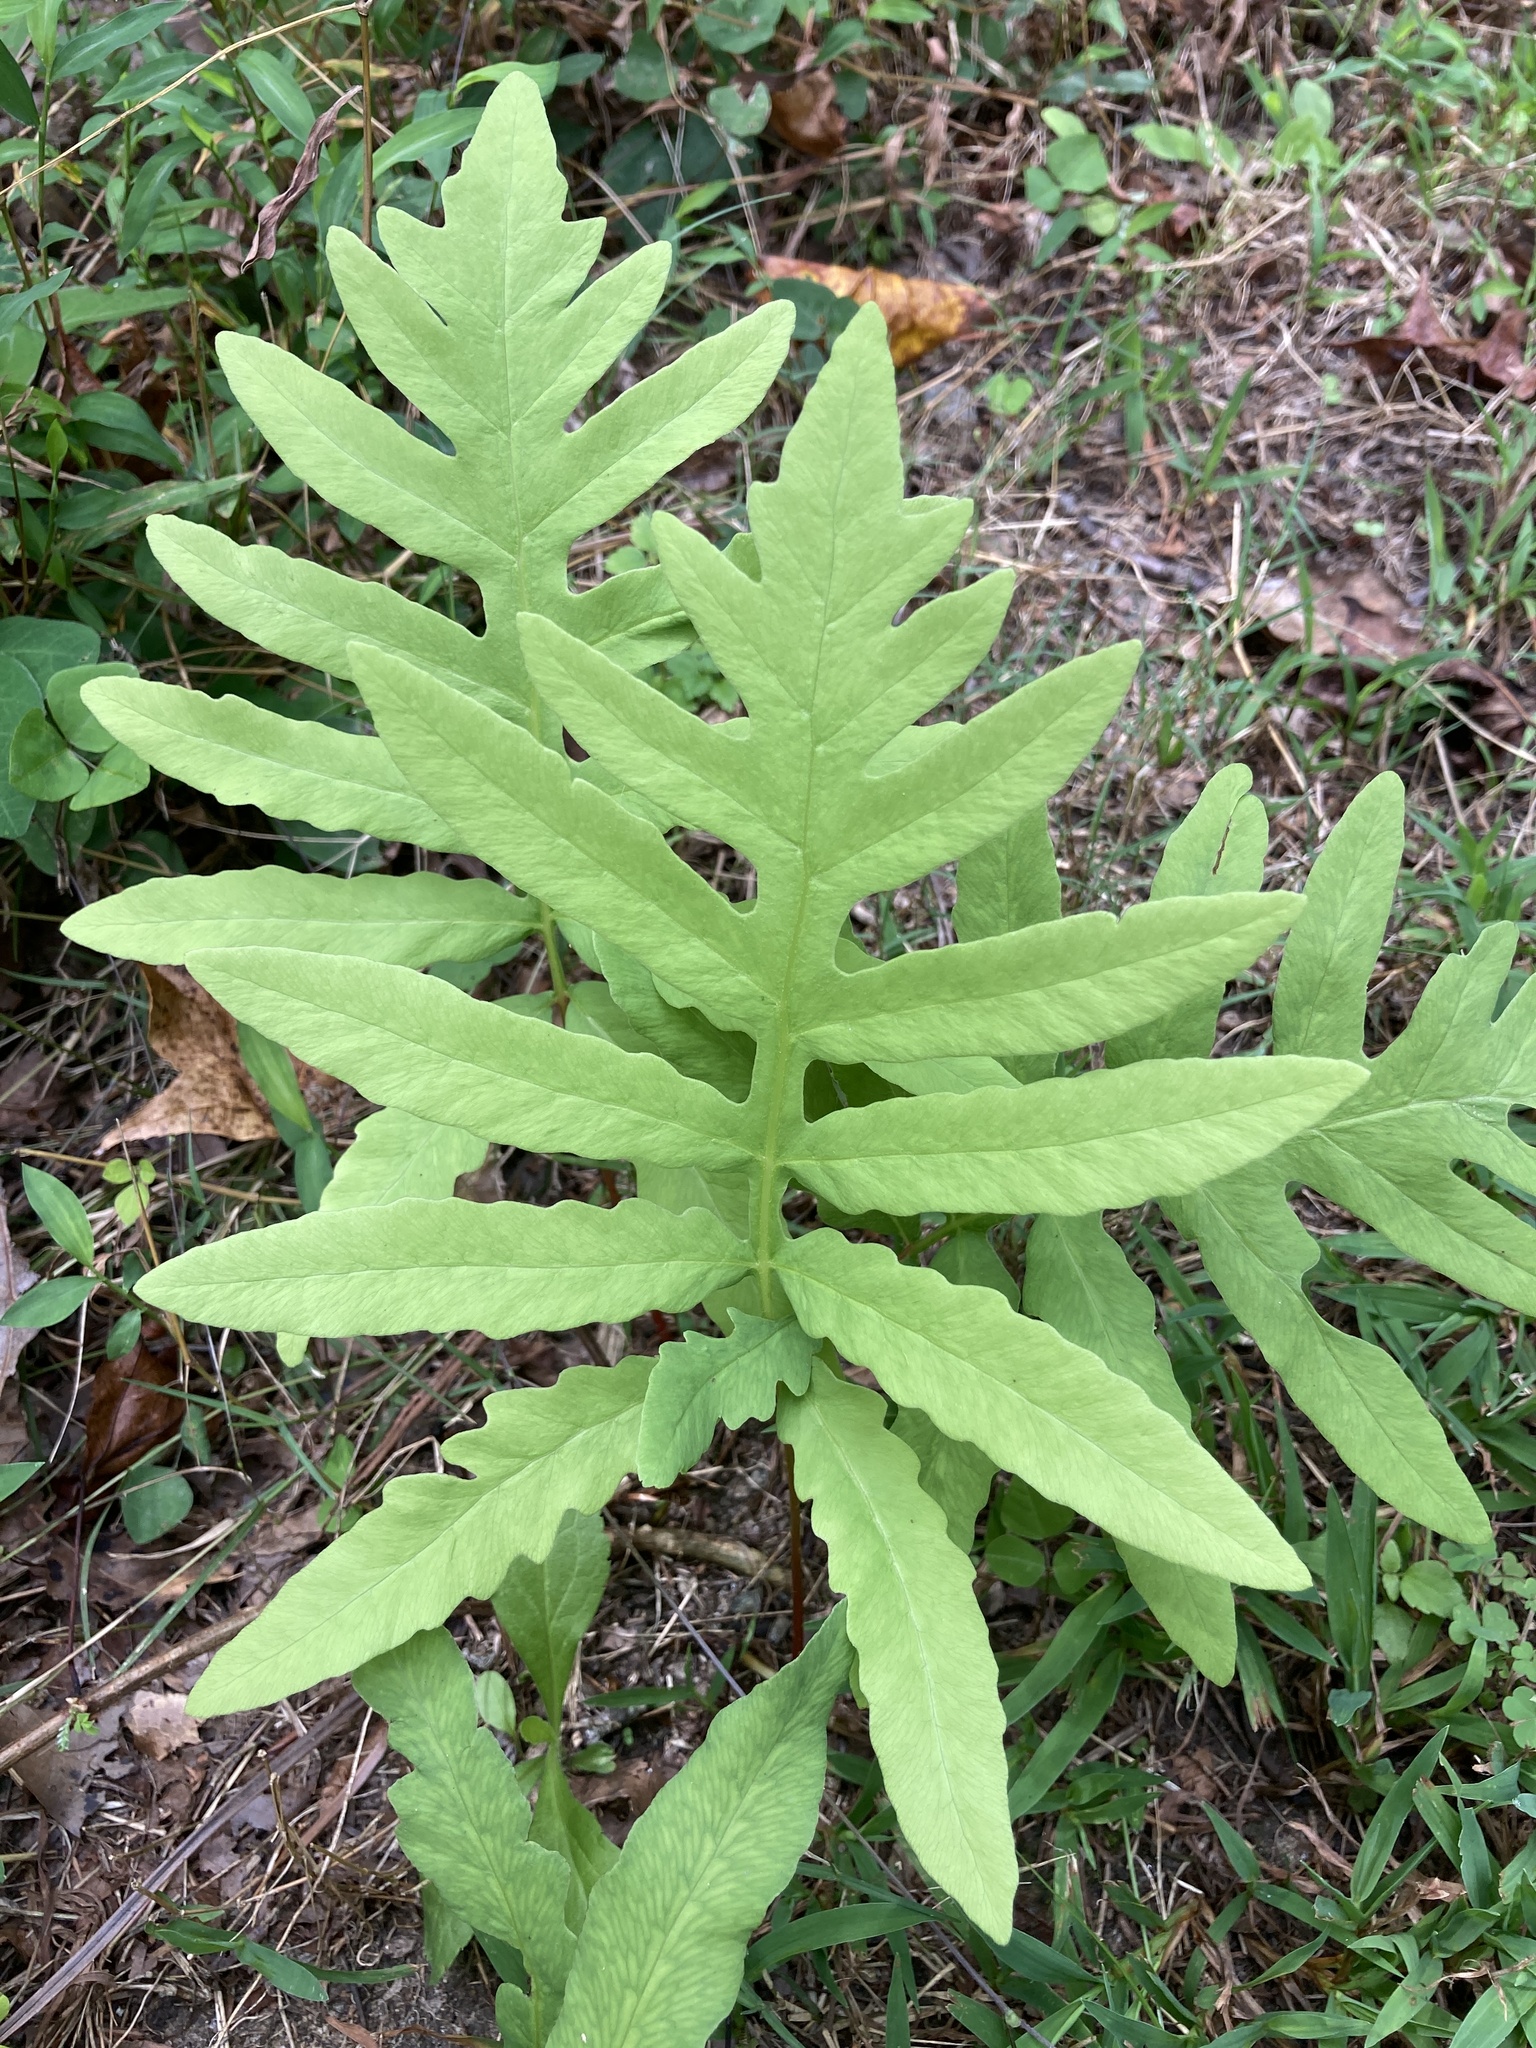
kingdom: Plantae
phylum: Tracheophyta
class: Polypodiopsida
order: Polypodiales
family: Onocleaceae
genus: Onoclea
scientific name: Onoclea sensibilis
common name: Sensitive fern
